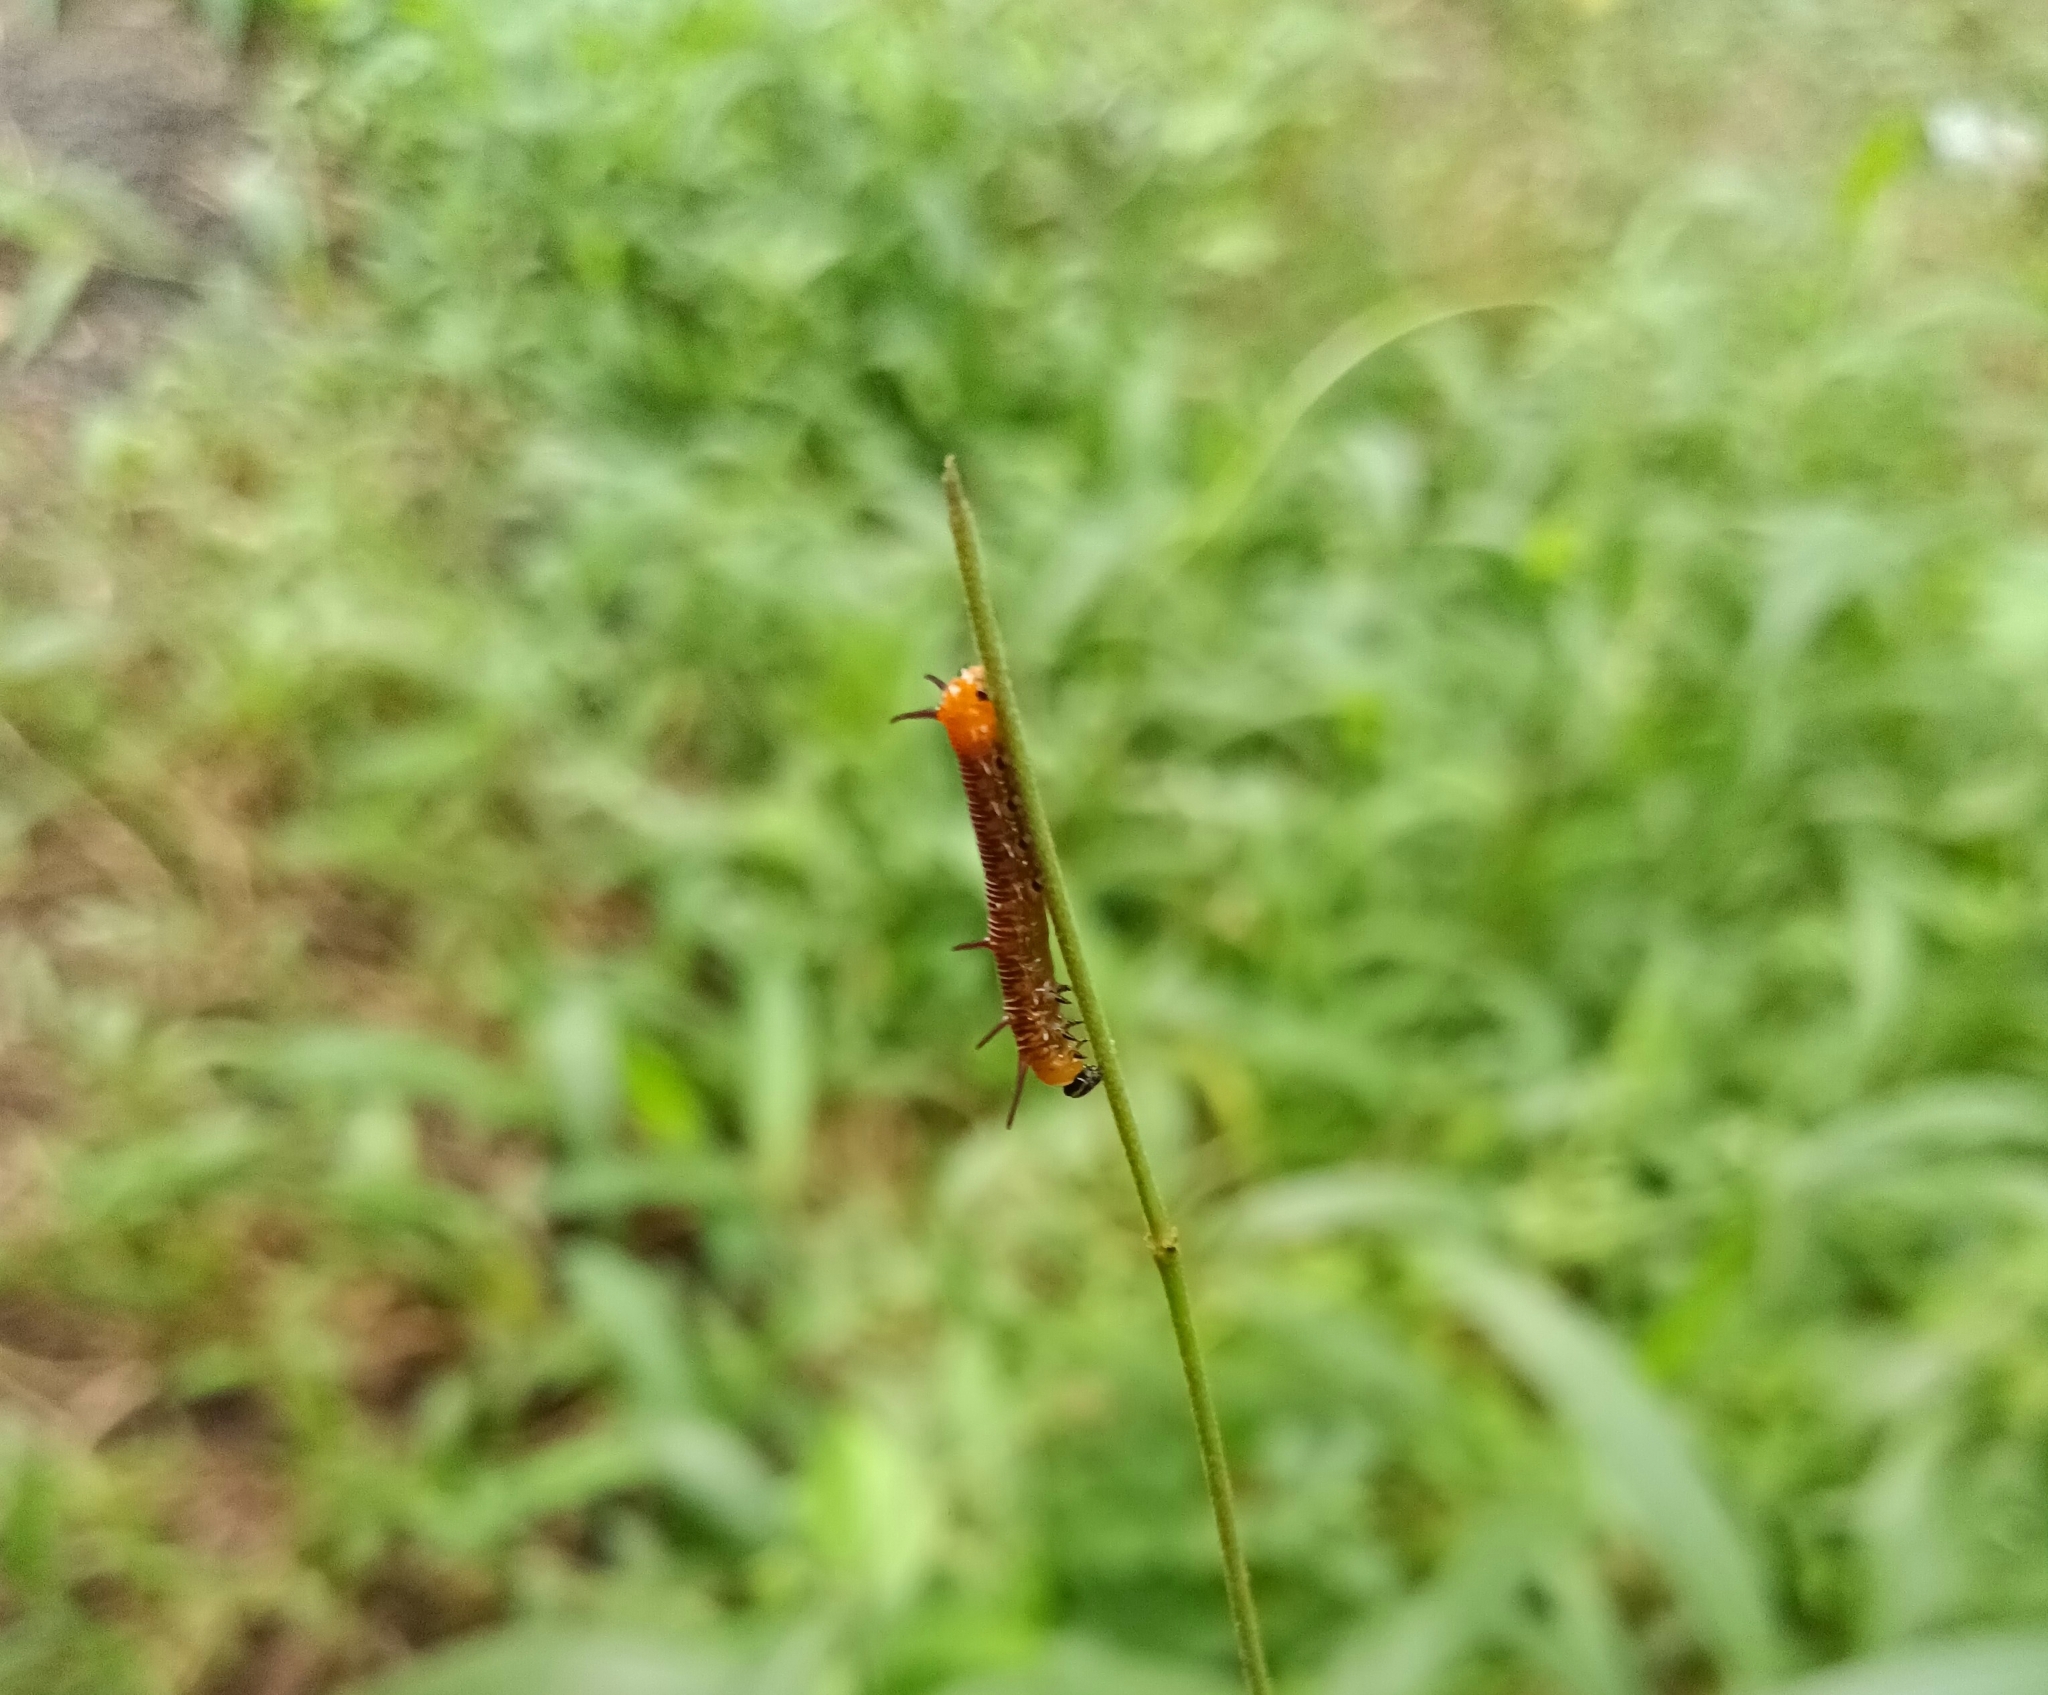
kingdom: Animalia
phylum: Arthropoda
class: Insecta
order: Lepidoptera
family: Nymphalidae
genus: Euploea
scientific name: Euploea core
